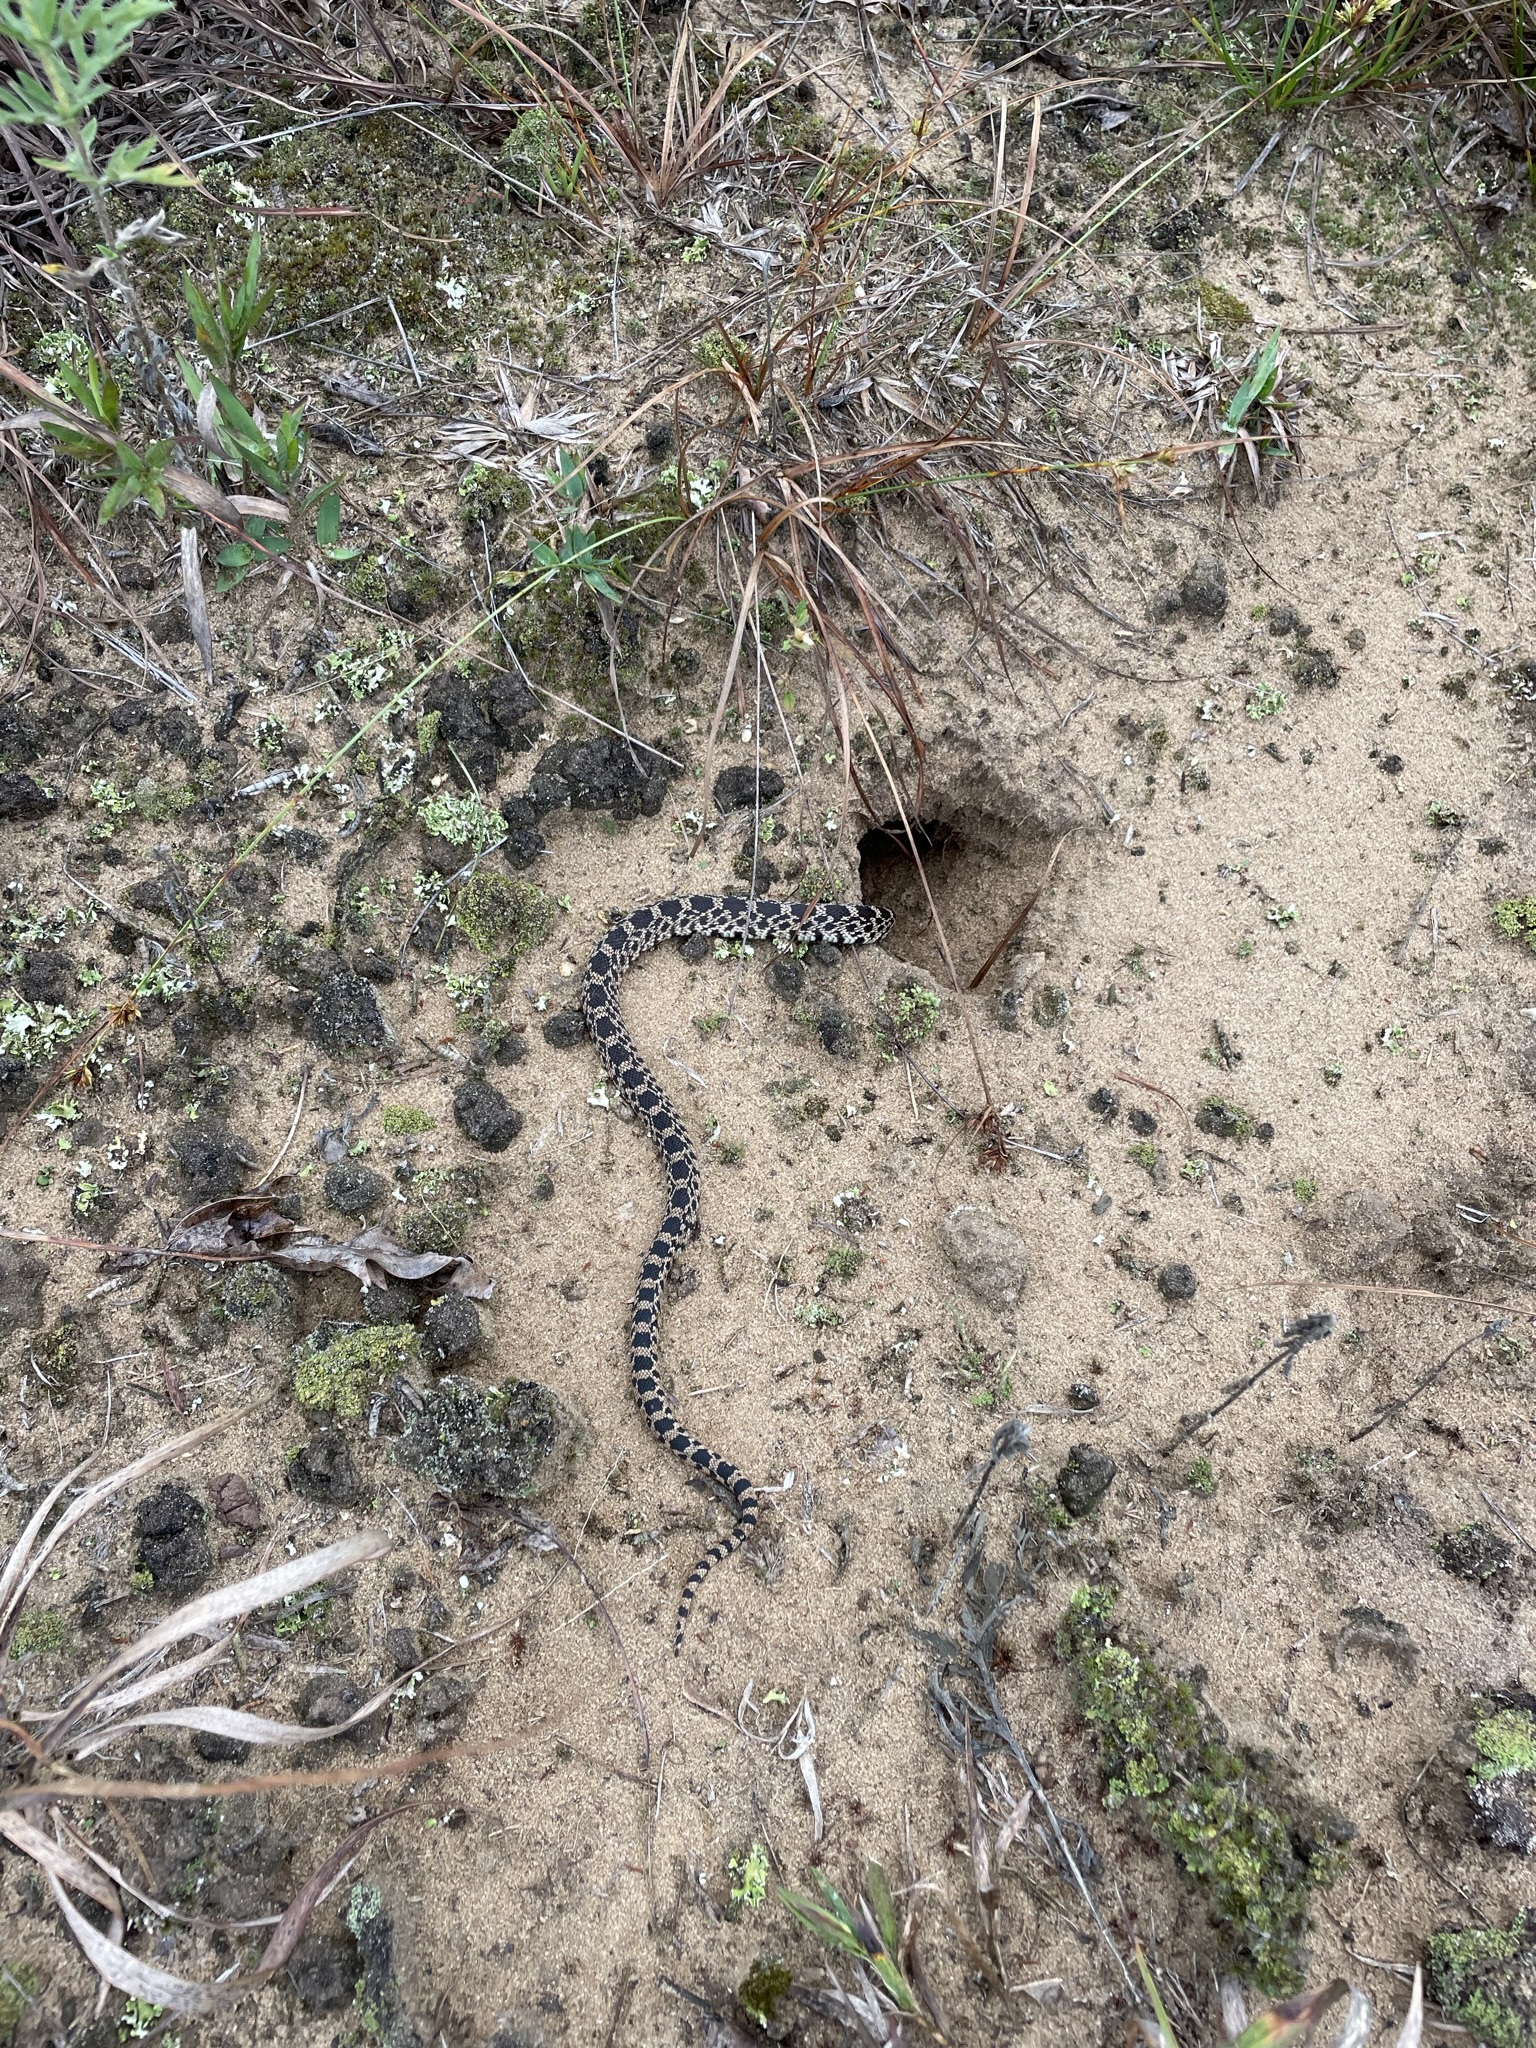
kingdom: Animalia
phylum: Chordata
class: Squamata
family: Colubridae
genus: Pituophis
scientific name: Pituophis catenifer
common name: Gopher snake
